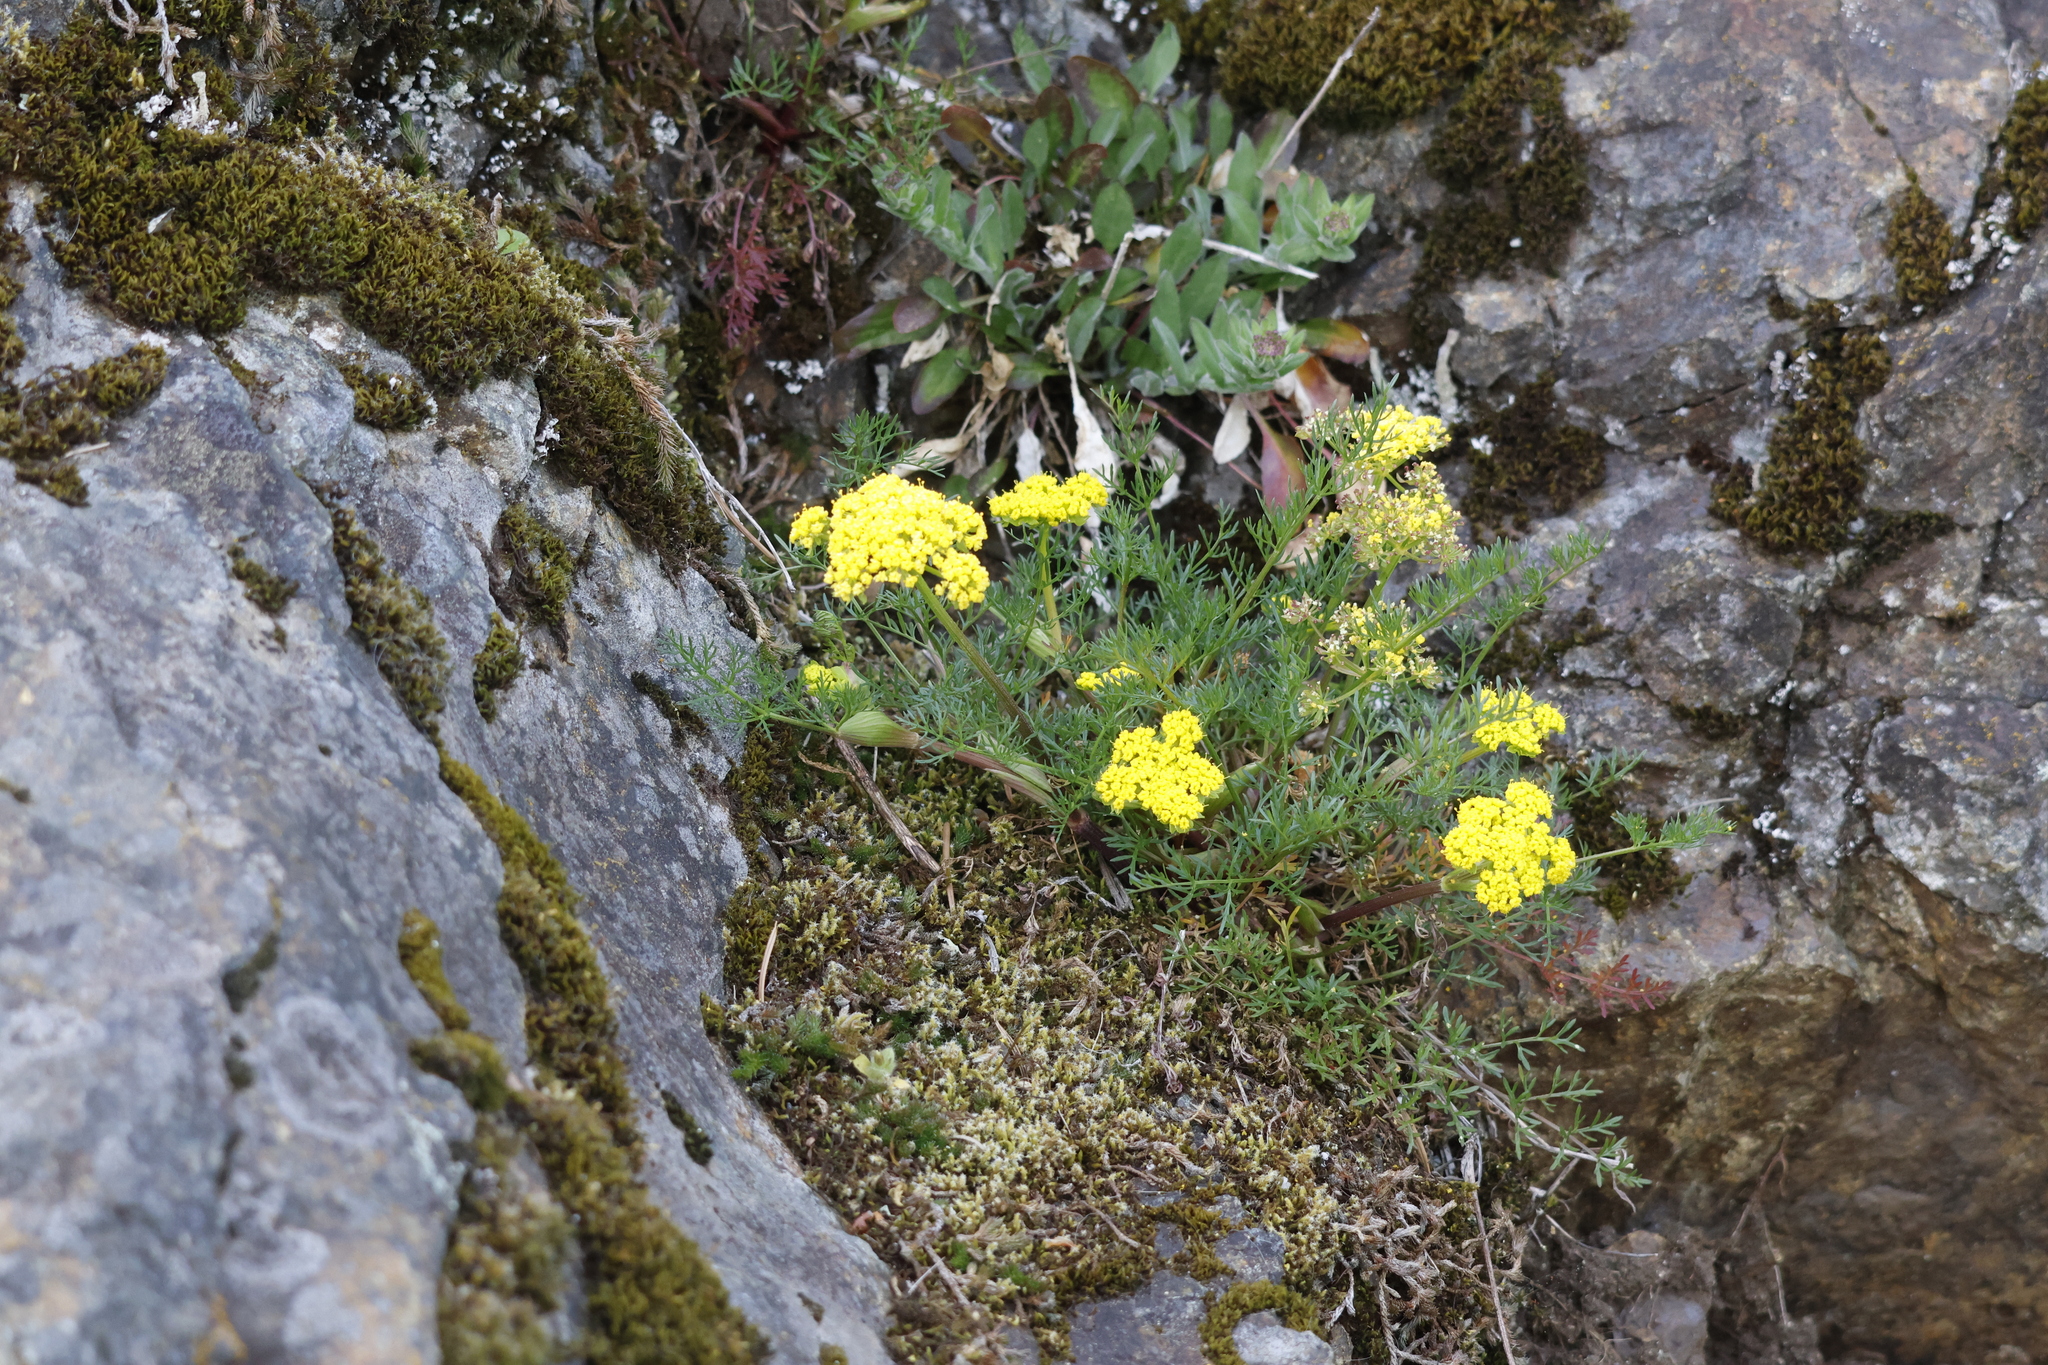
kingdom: Plantae
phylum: Tracheophyta
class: Magnoliopsida
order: Apiales
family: Apiaceae
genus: Lomatium
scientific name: Lomatium utriculatum
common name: Fine-leaf desert-parsley
